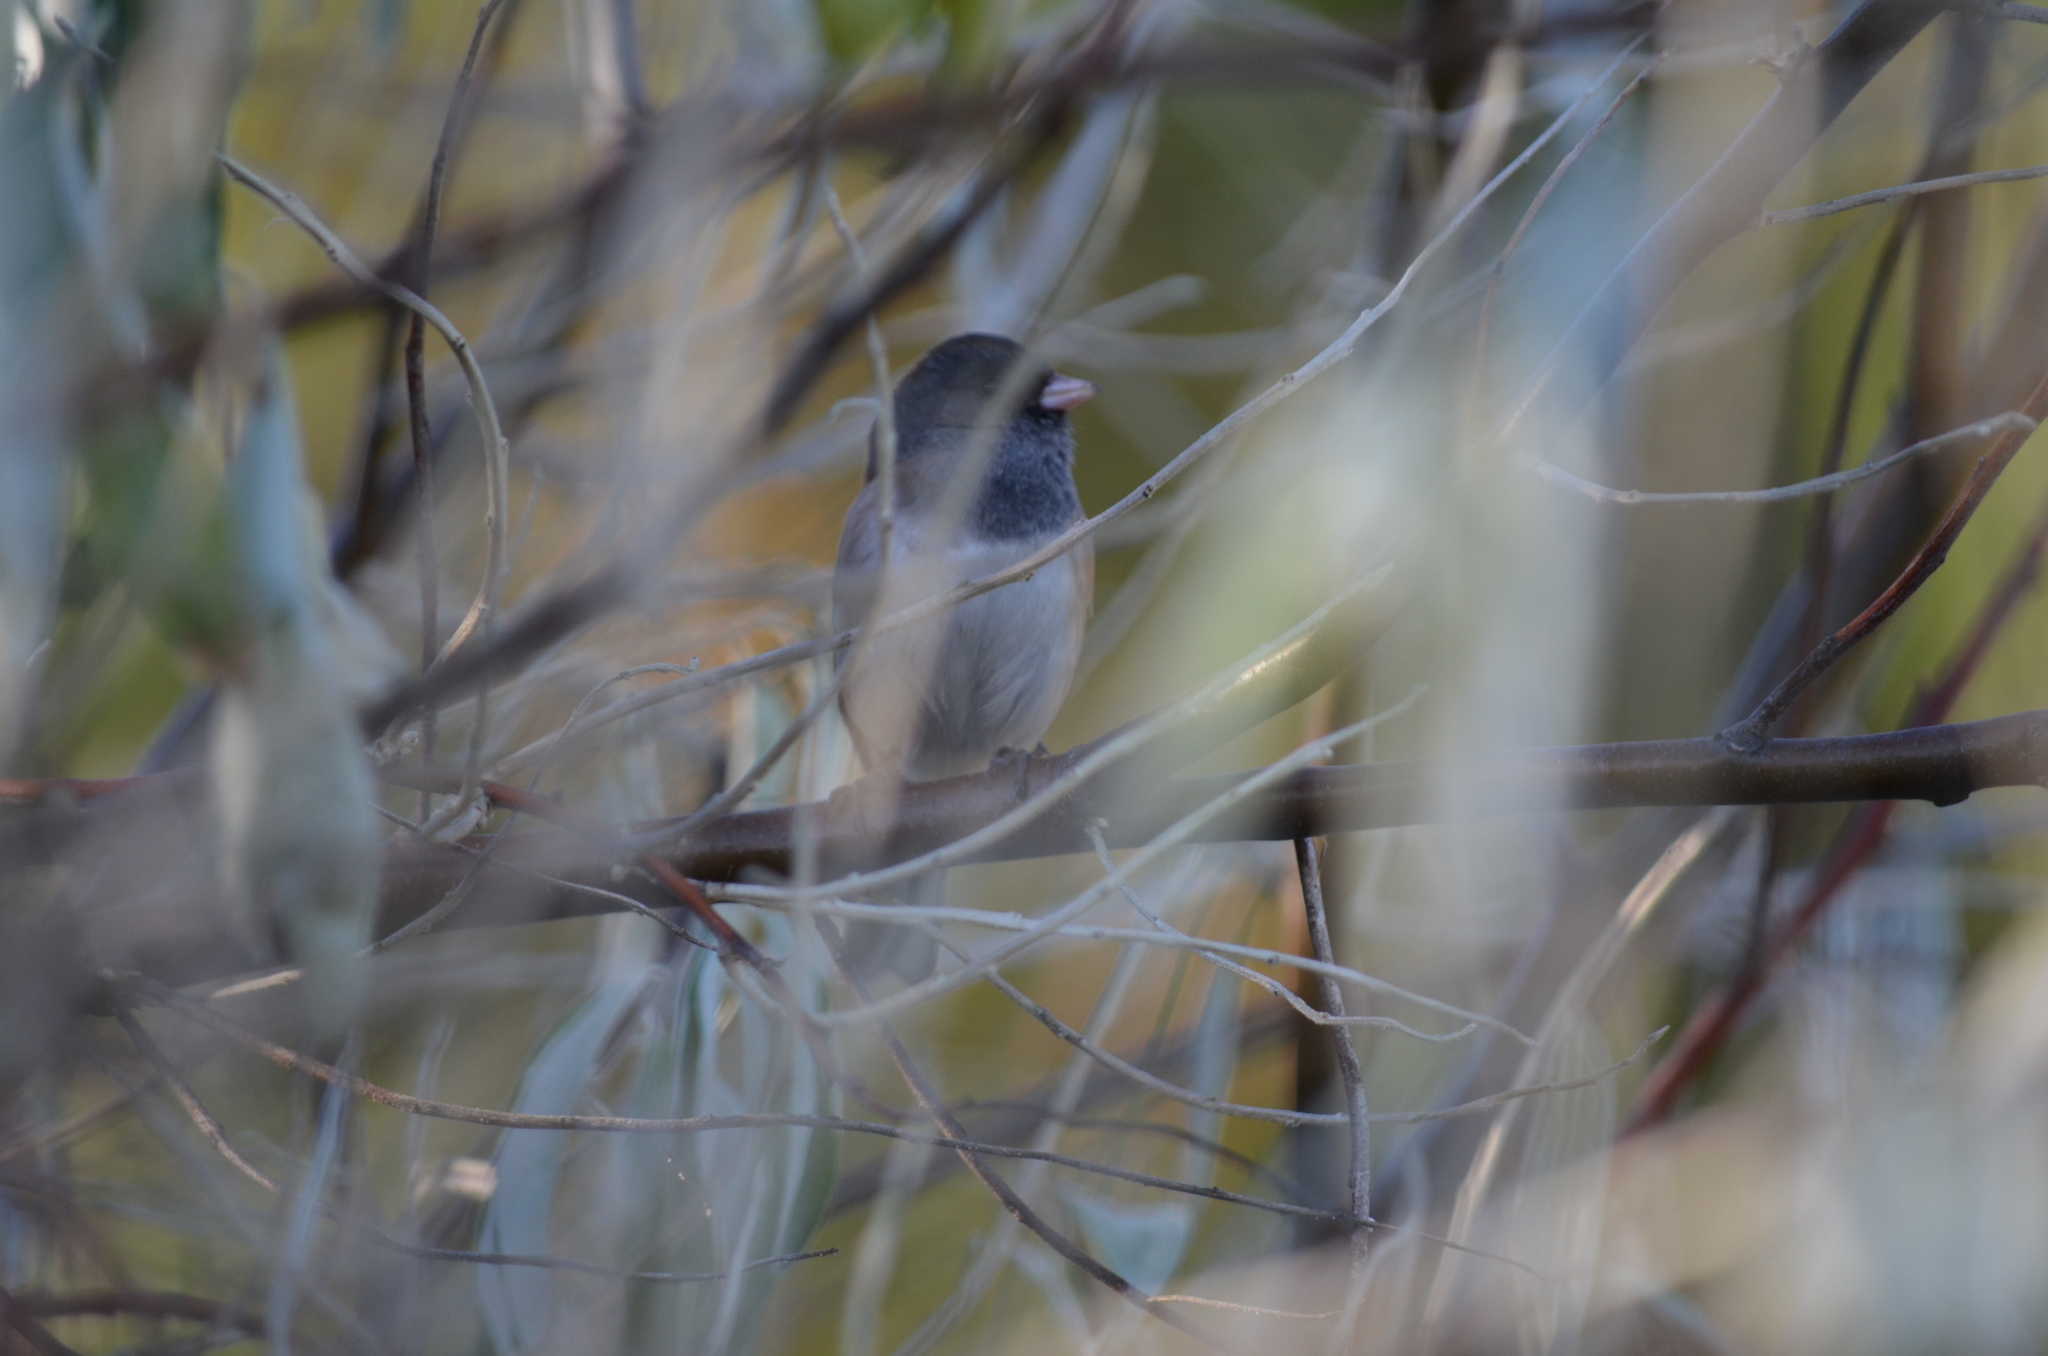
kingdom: Animalia
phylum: Chordata
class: Aves
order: Passeriformes
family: Passerellidae
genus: Junco
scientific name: Junco hyemalis
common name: Dark-eyed junco
